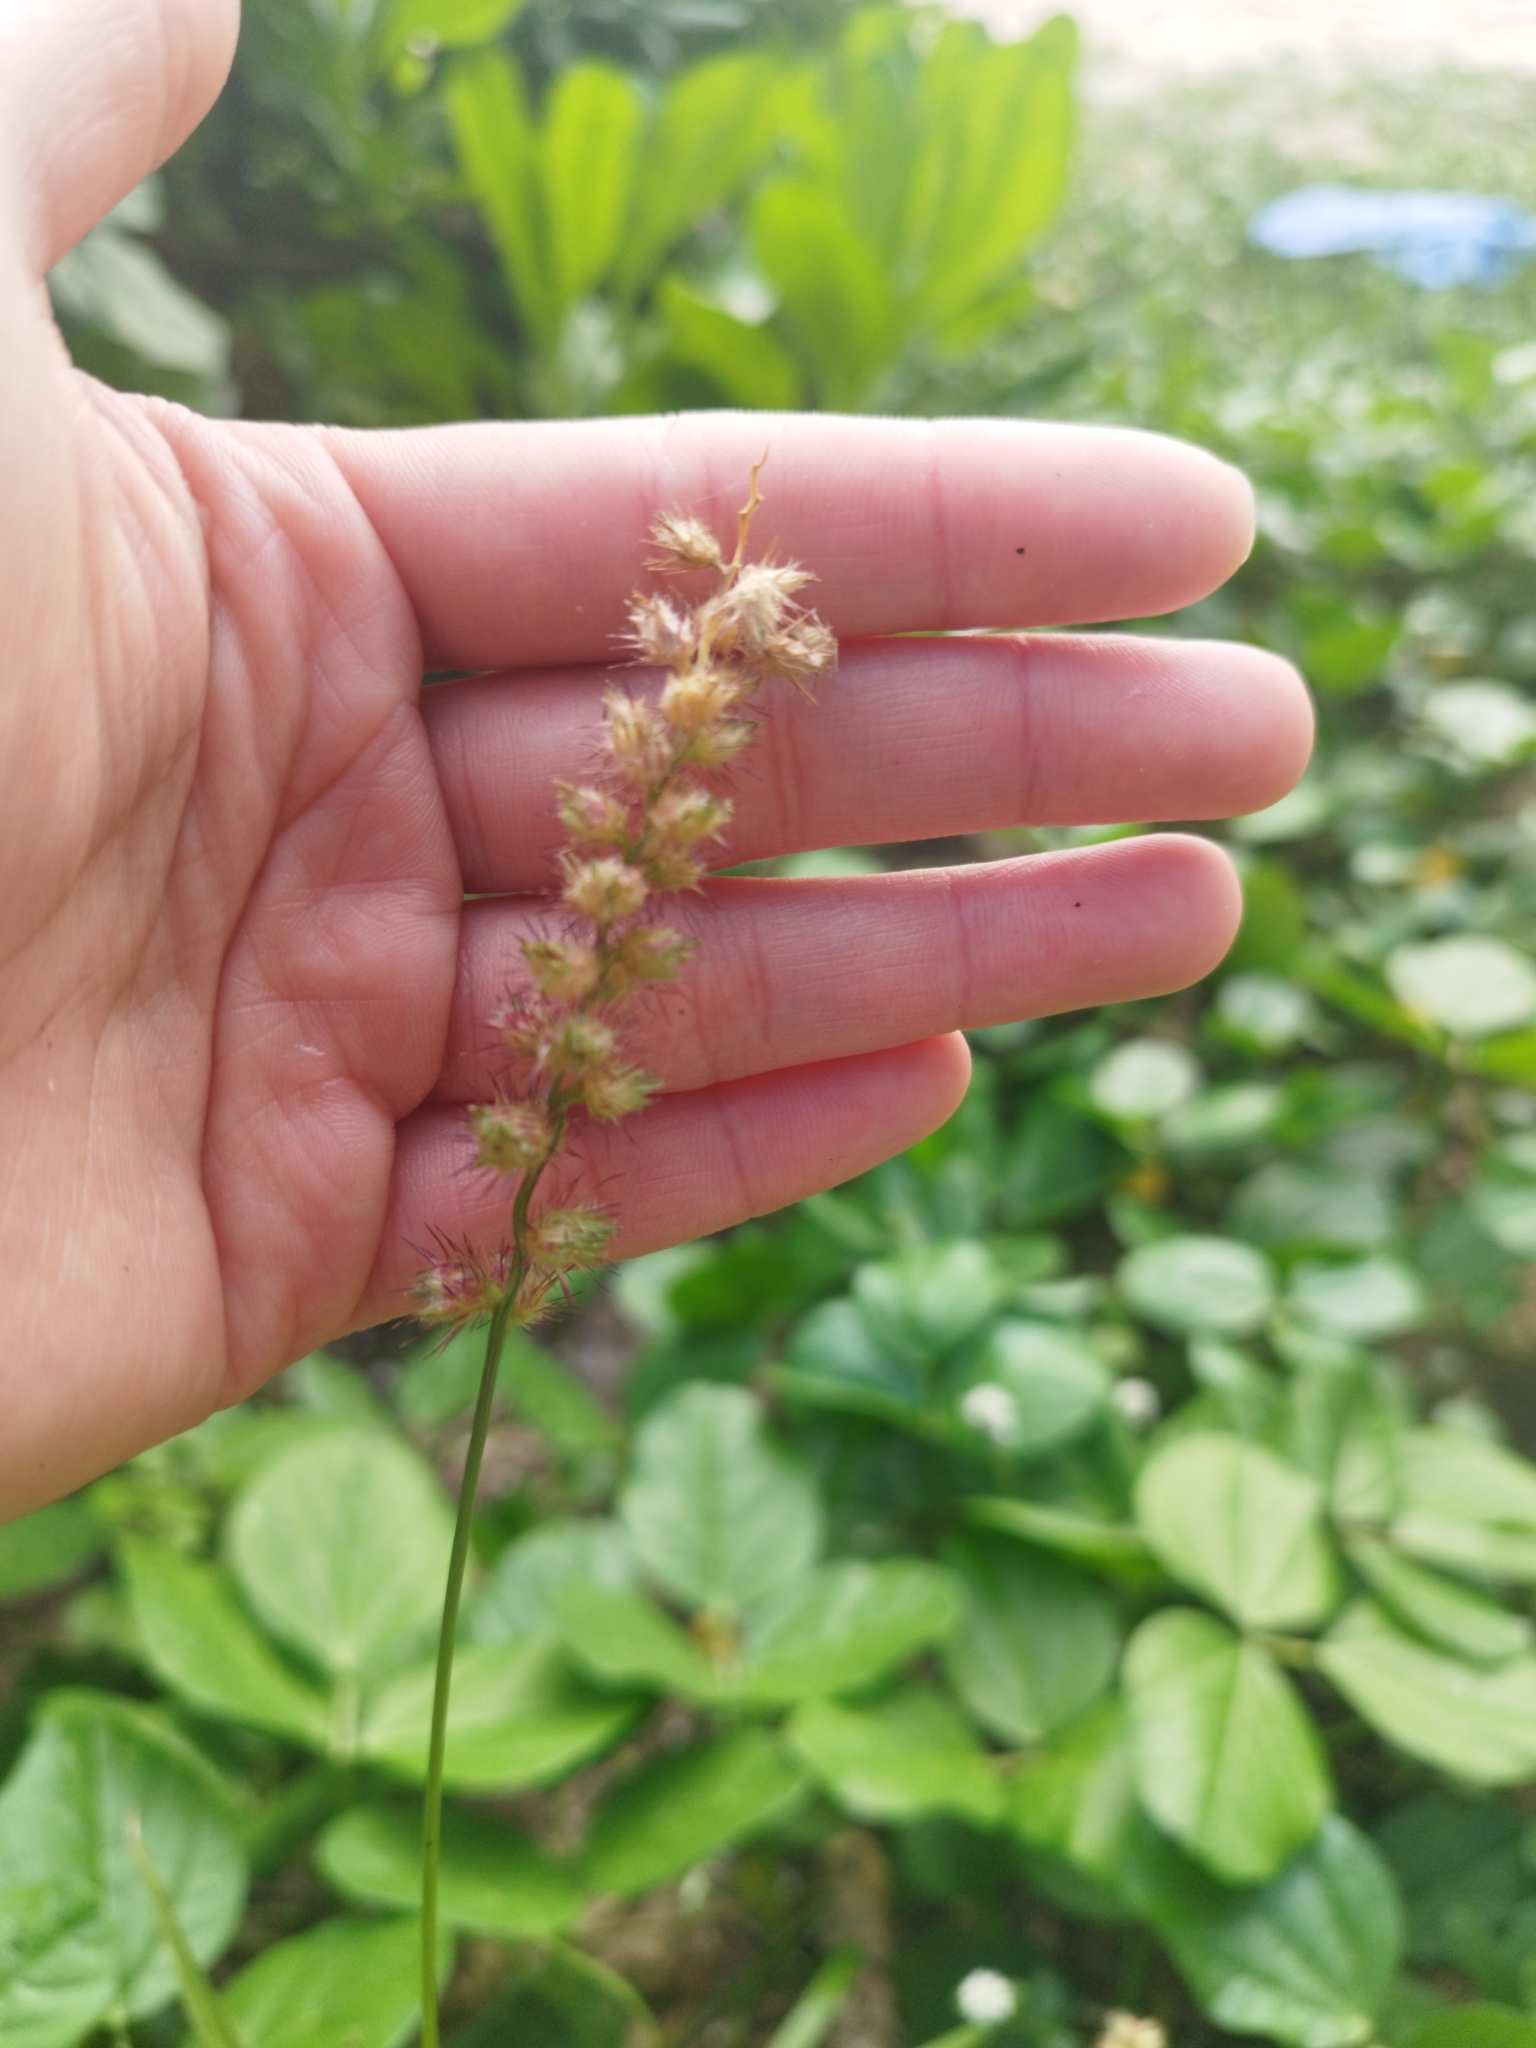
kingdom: Plantae
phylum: Tracheophyta
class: Liliopsida
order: Poales
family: Poaceae
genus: Cenchrus
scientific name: Cenchrus echinatus
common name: Southern sandbur
